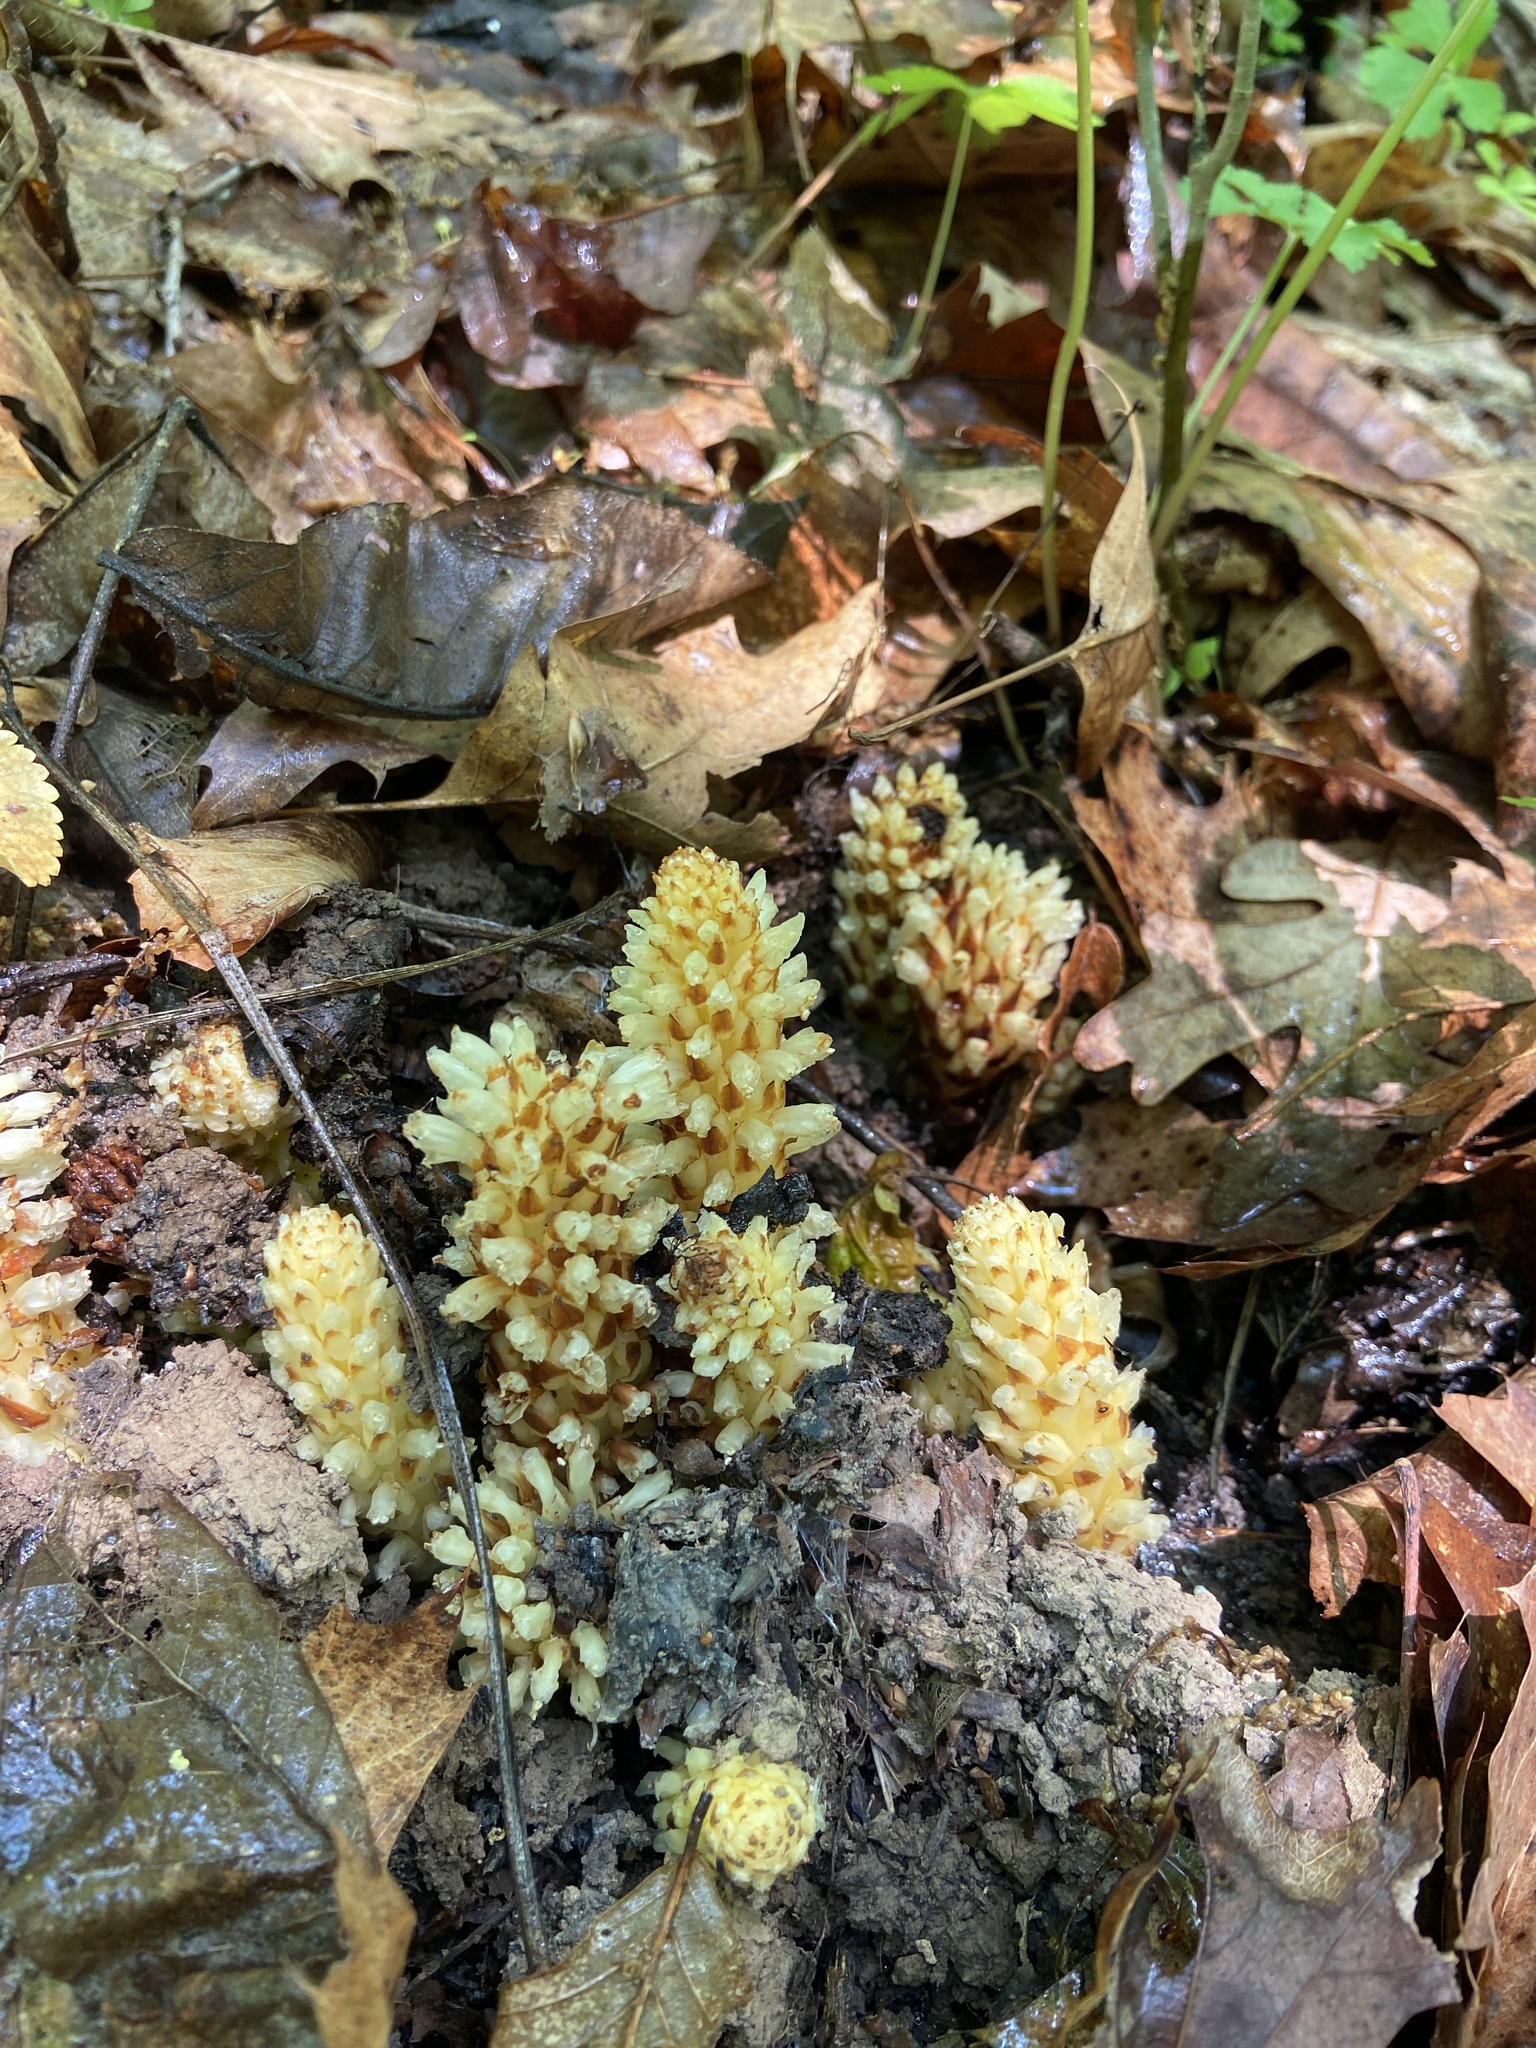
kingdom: Plantae
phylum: Tracheophyta
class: Magnoliopsida
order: Lamiales
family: Orobanchaceae
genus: Conopholis
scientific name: Conopholis americana
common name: American cancer-root
